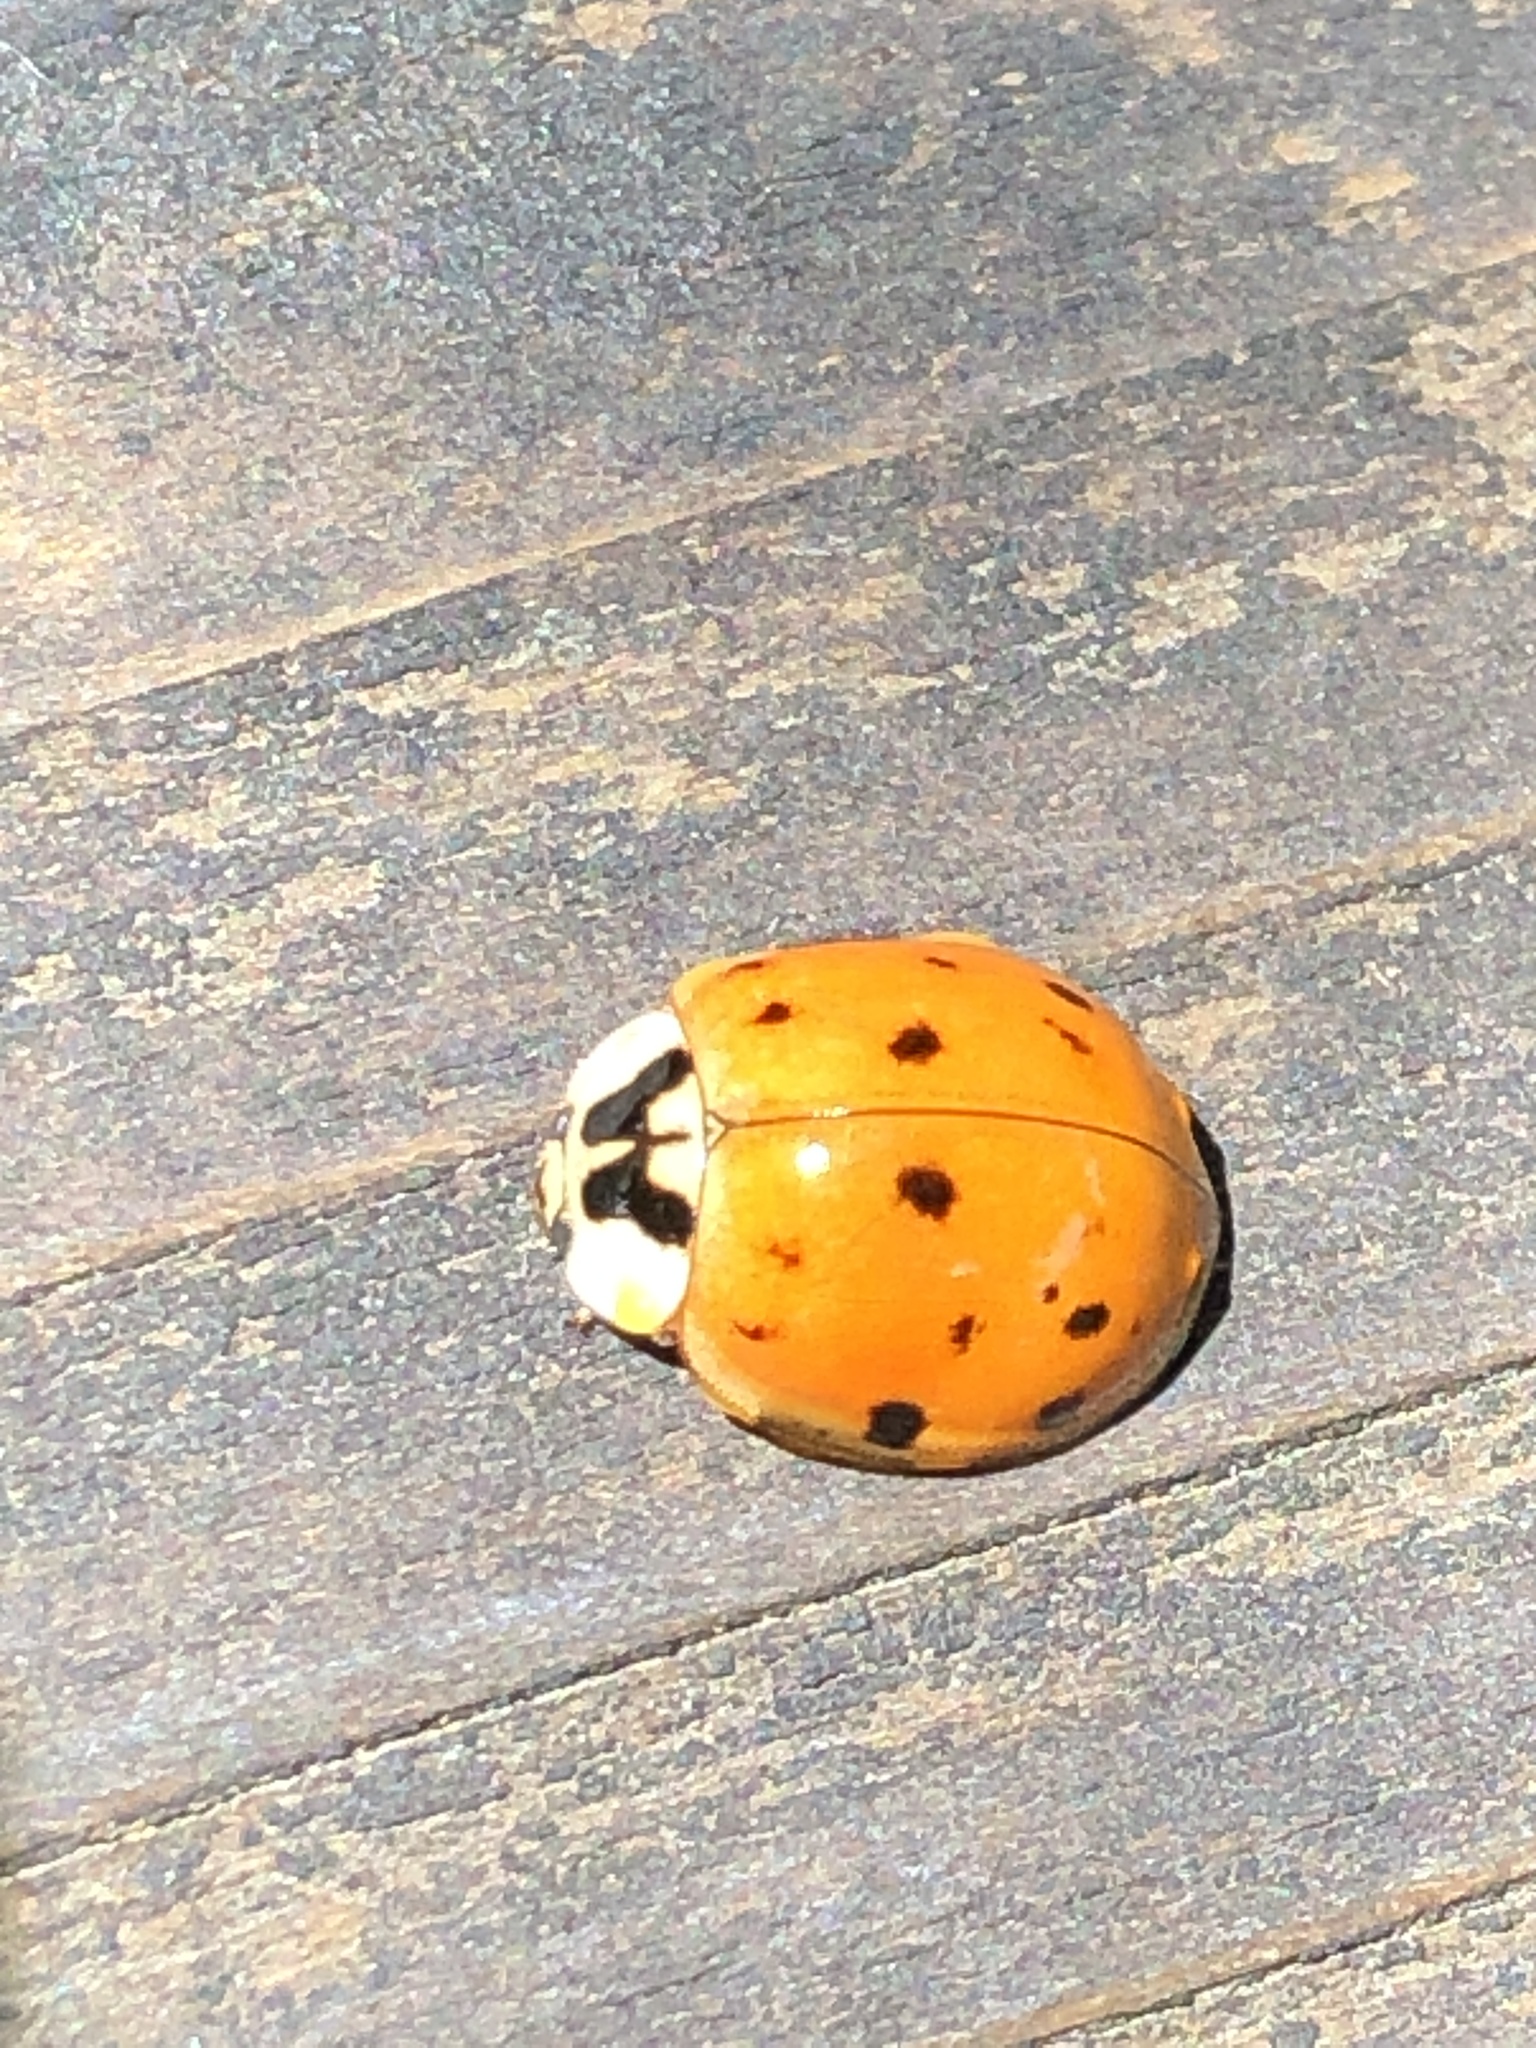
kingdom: Animalia
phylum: Arthropoda
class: Insecta
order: Coleoptera
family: Coccinellidae
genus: Harmonia
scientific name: Harmonia axyridis
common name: Harlequin ladybird
